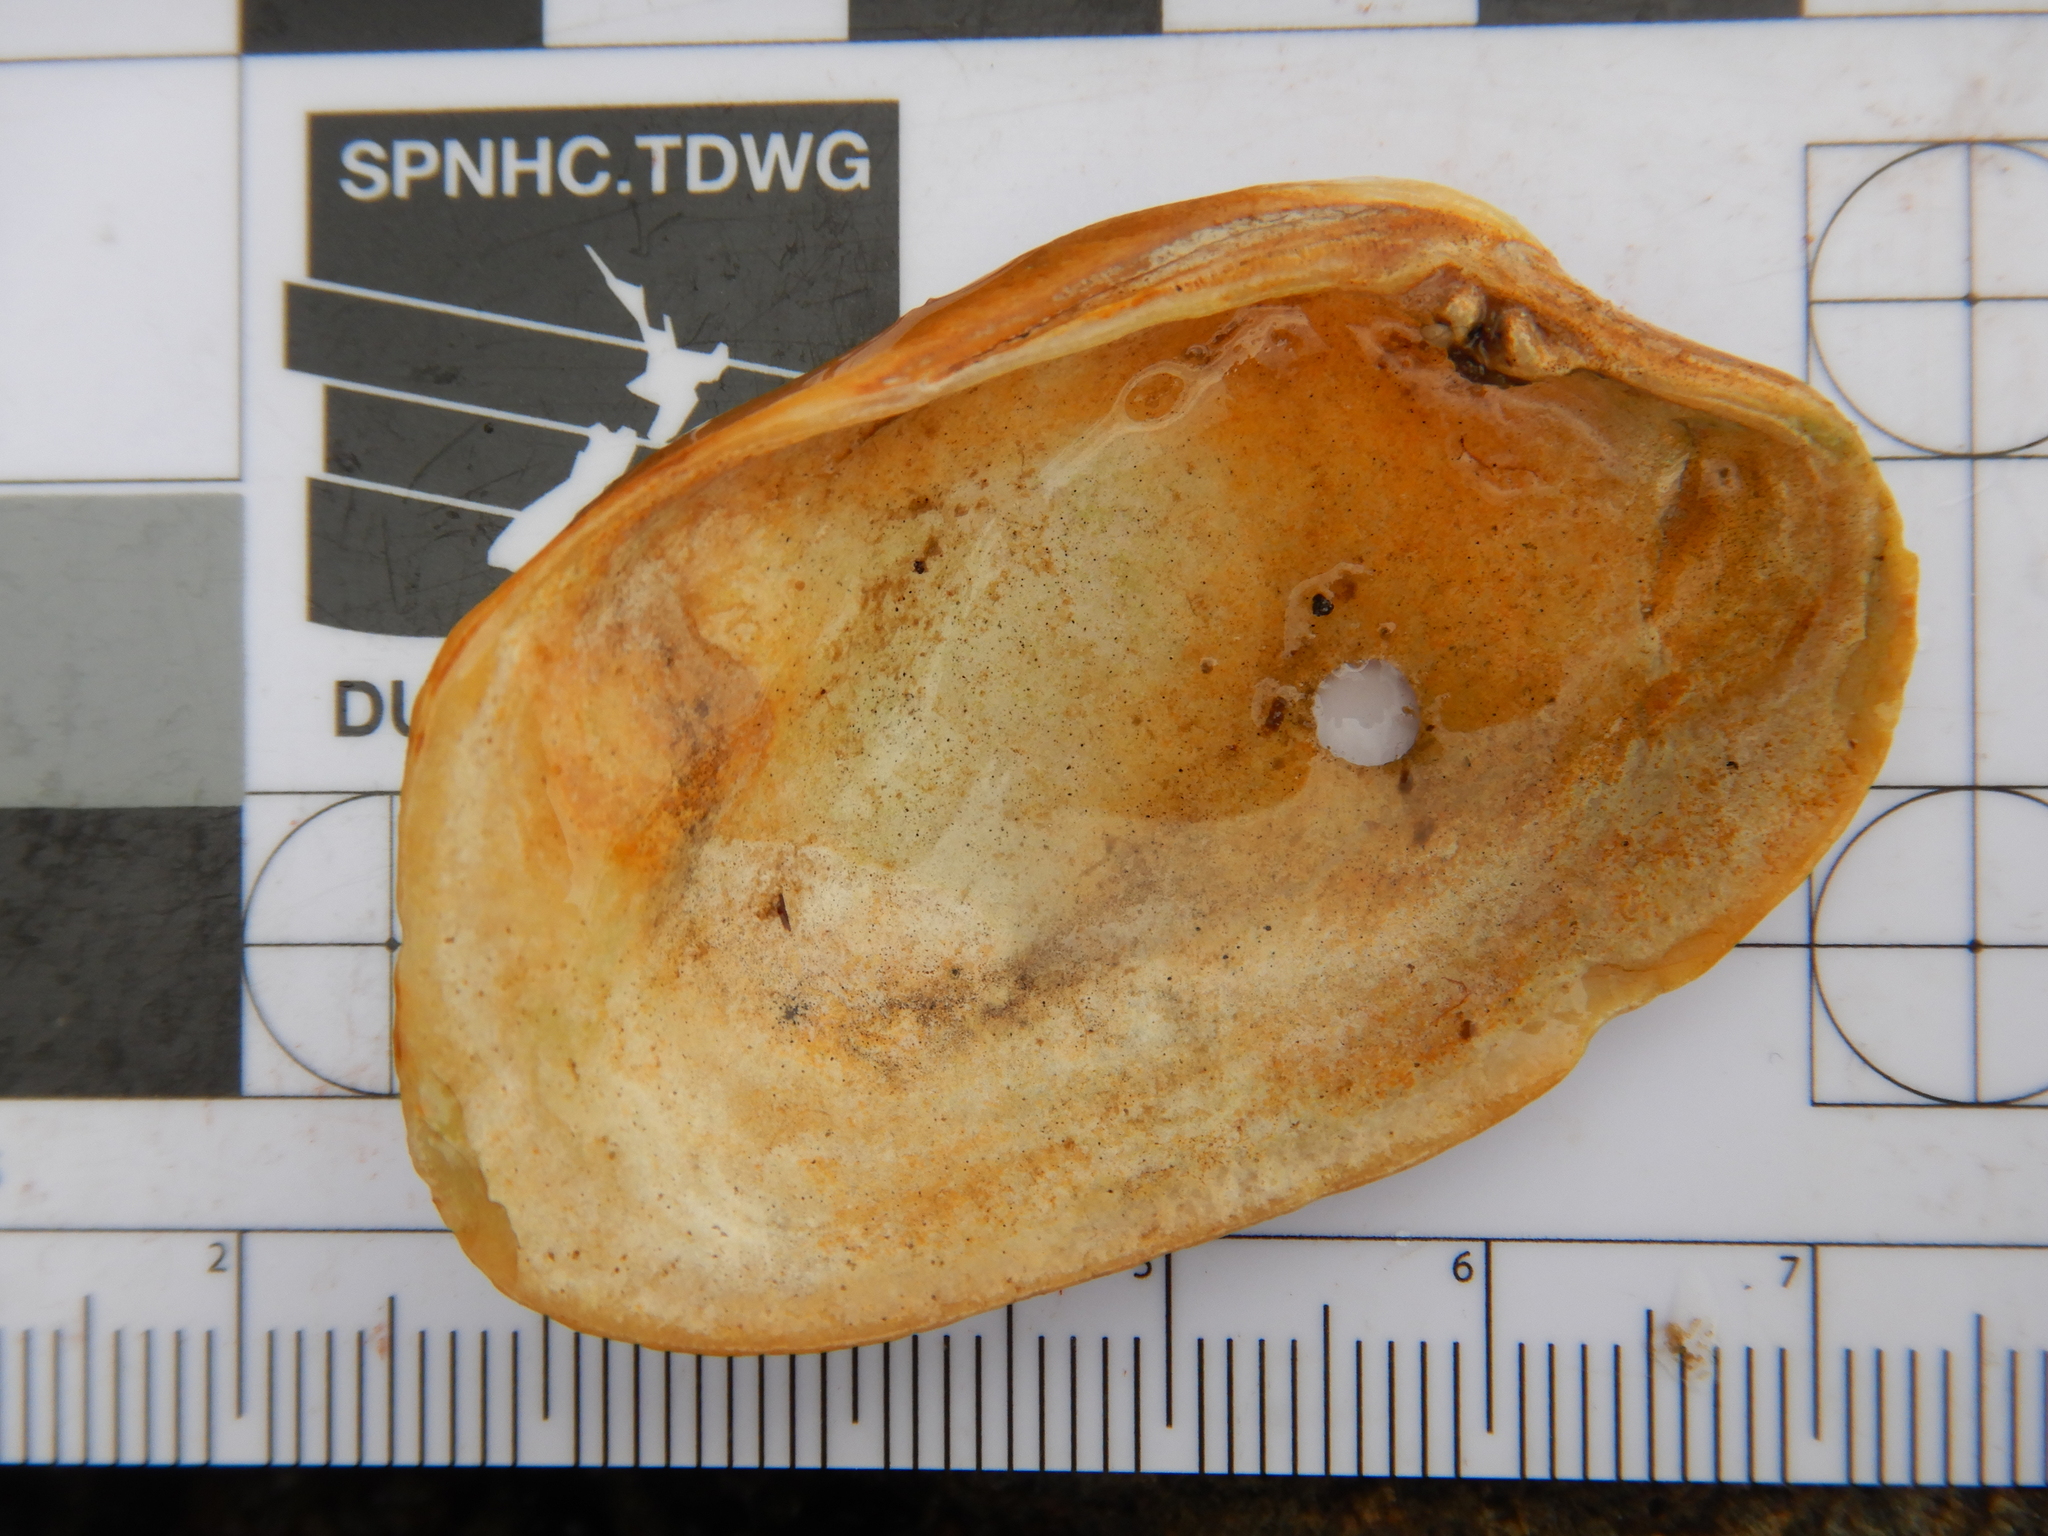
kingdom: Animalia
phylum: Mollusca
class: Bivalvia
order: Venerida
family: Veneridae
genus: Irus
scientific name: Irus carditoides
